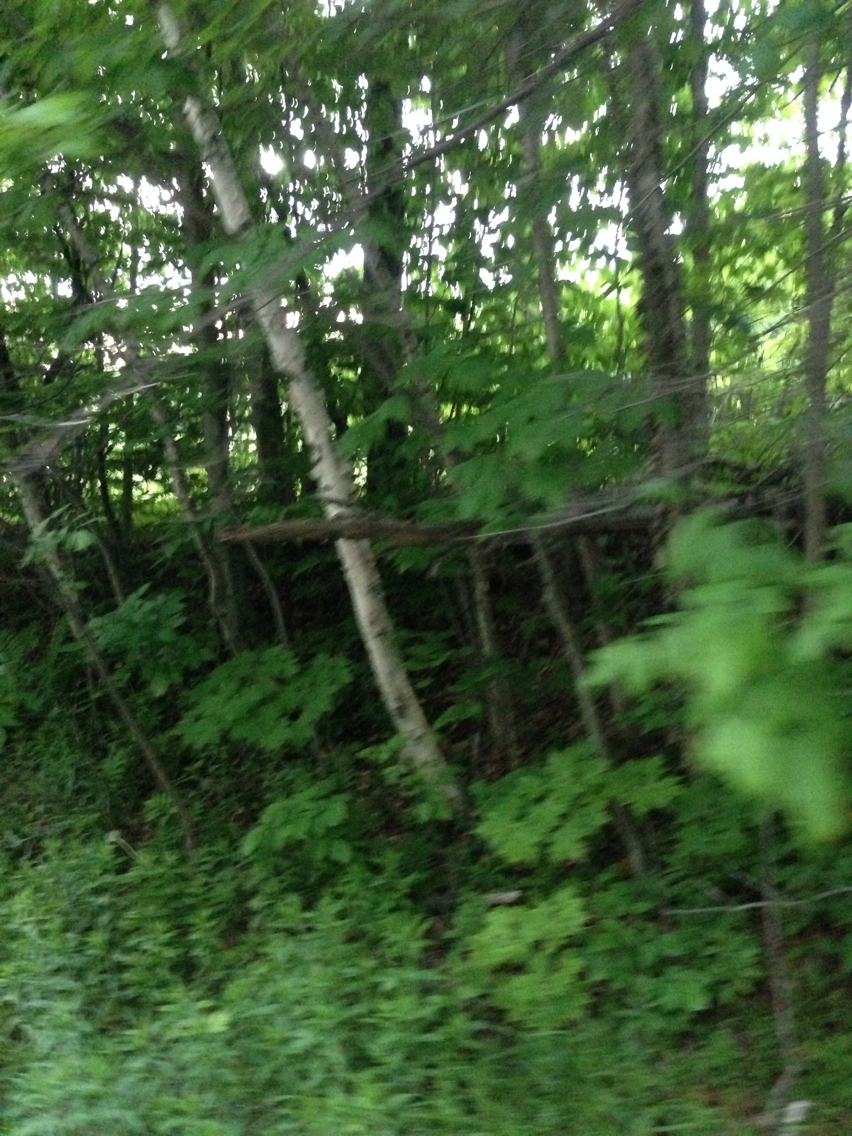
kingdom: Plantae
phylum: Tracheophyta
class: Magnoliopsida
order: Fagales
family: Betulaceae
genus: Betula
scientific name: Betula papyrifera
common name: Paper birch
